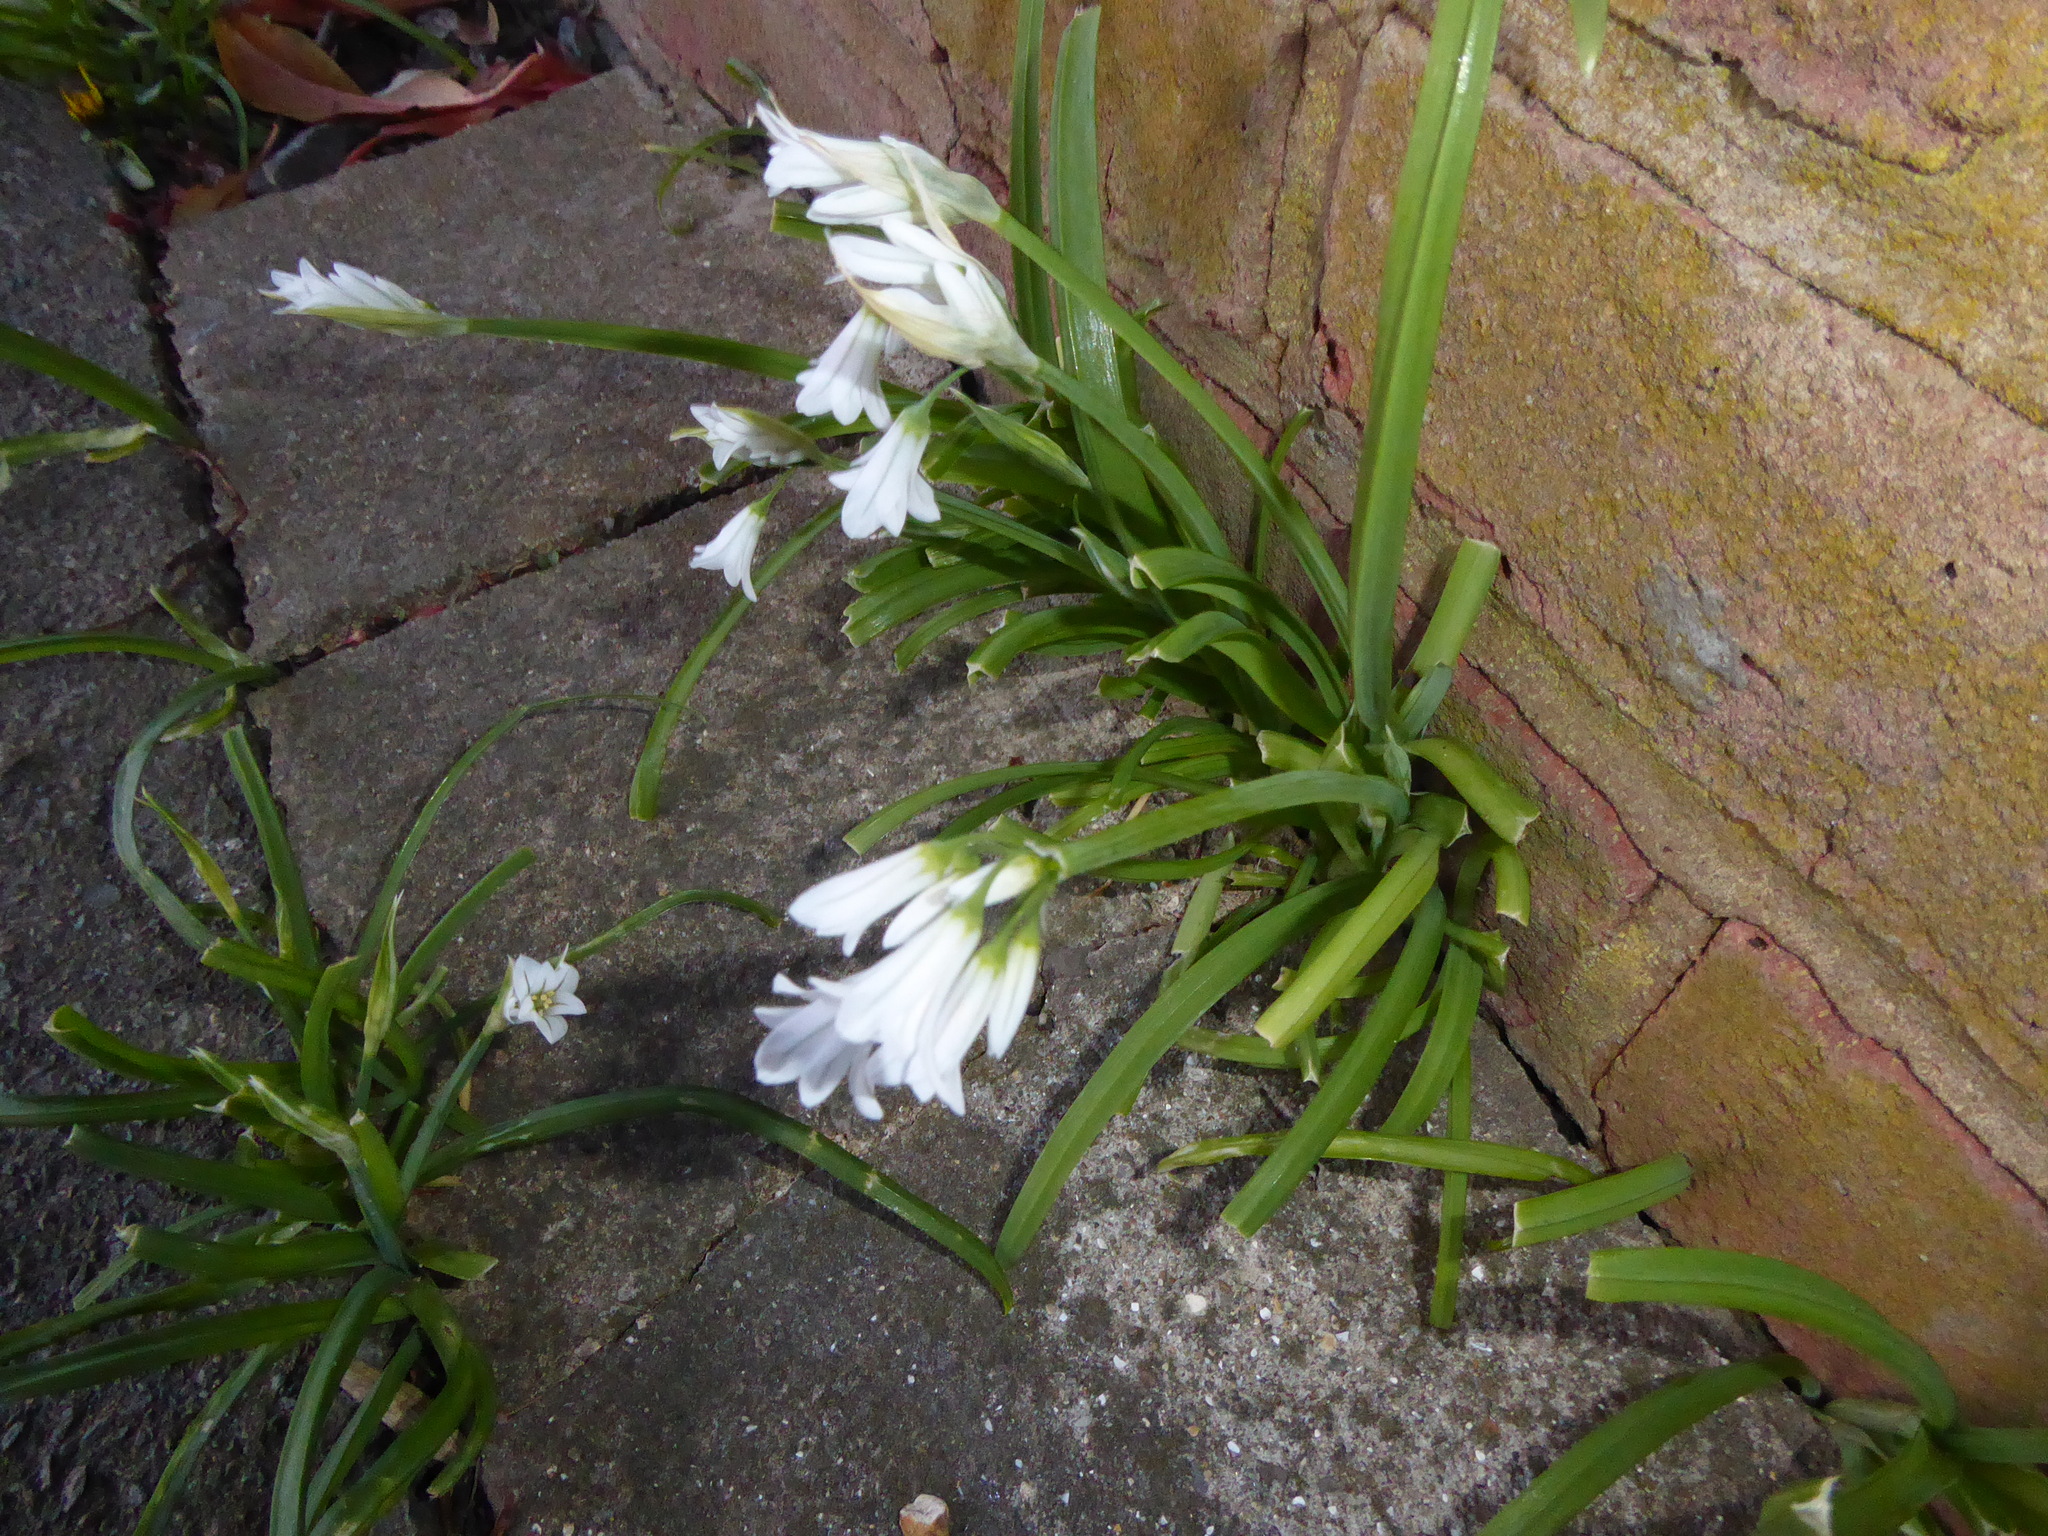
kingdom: Plantae
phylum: Tracheophyta
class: Liliopsida
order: Asparagales
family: Amaryllidaceae
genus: Allium
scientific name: Allium triquetrum
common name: Three-cornered garlic
